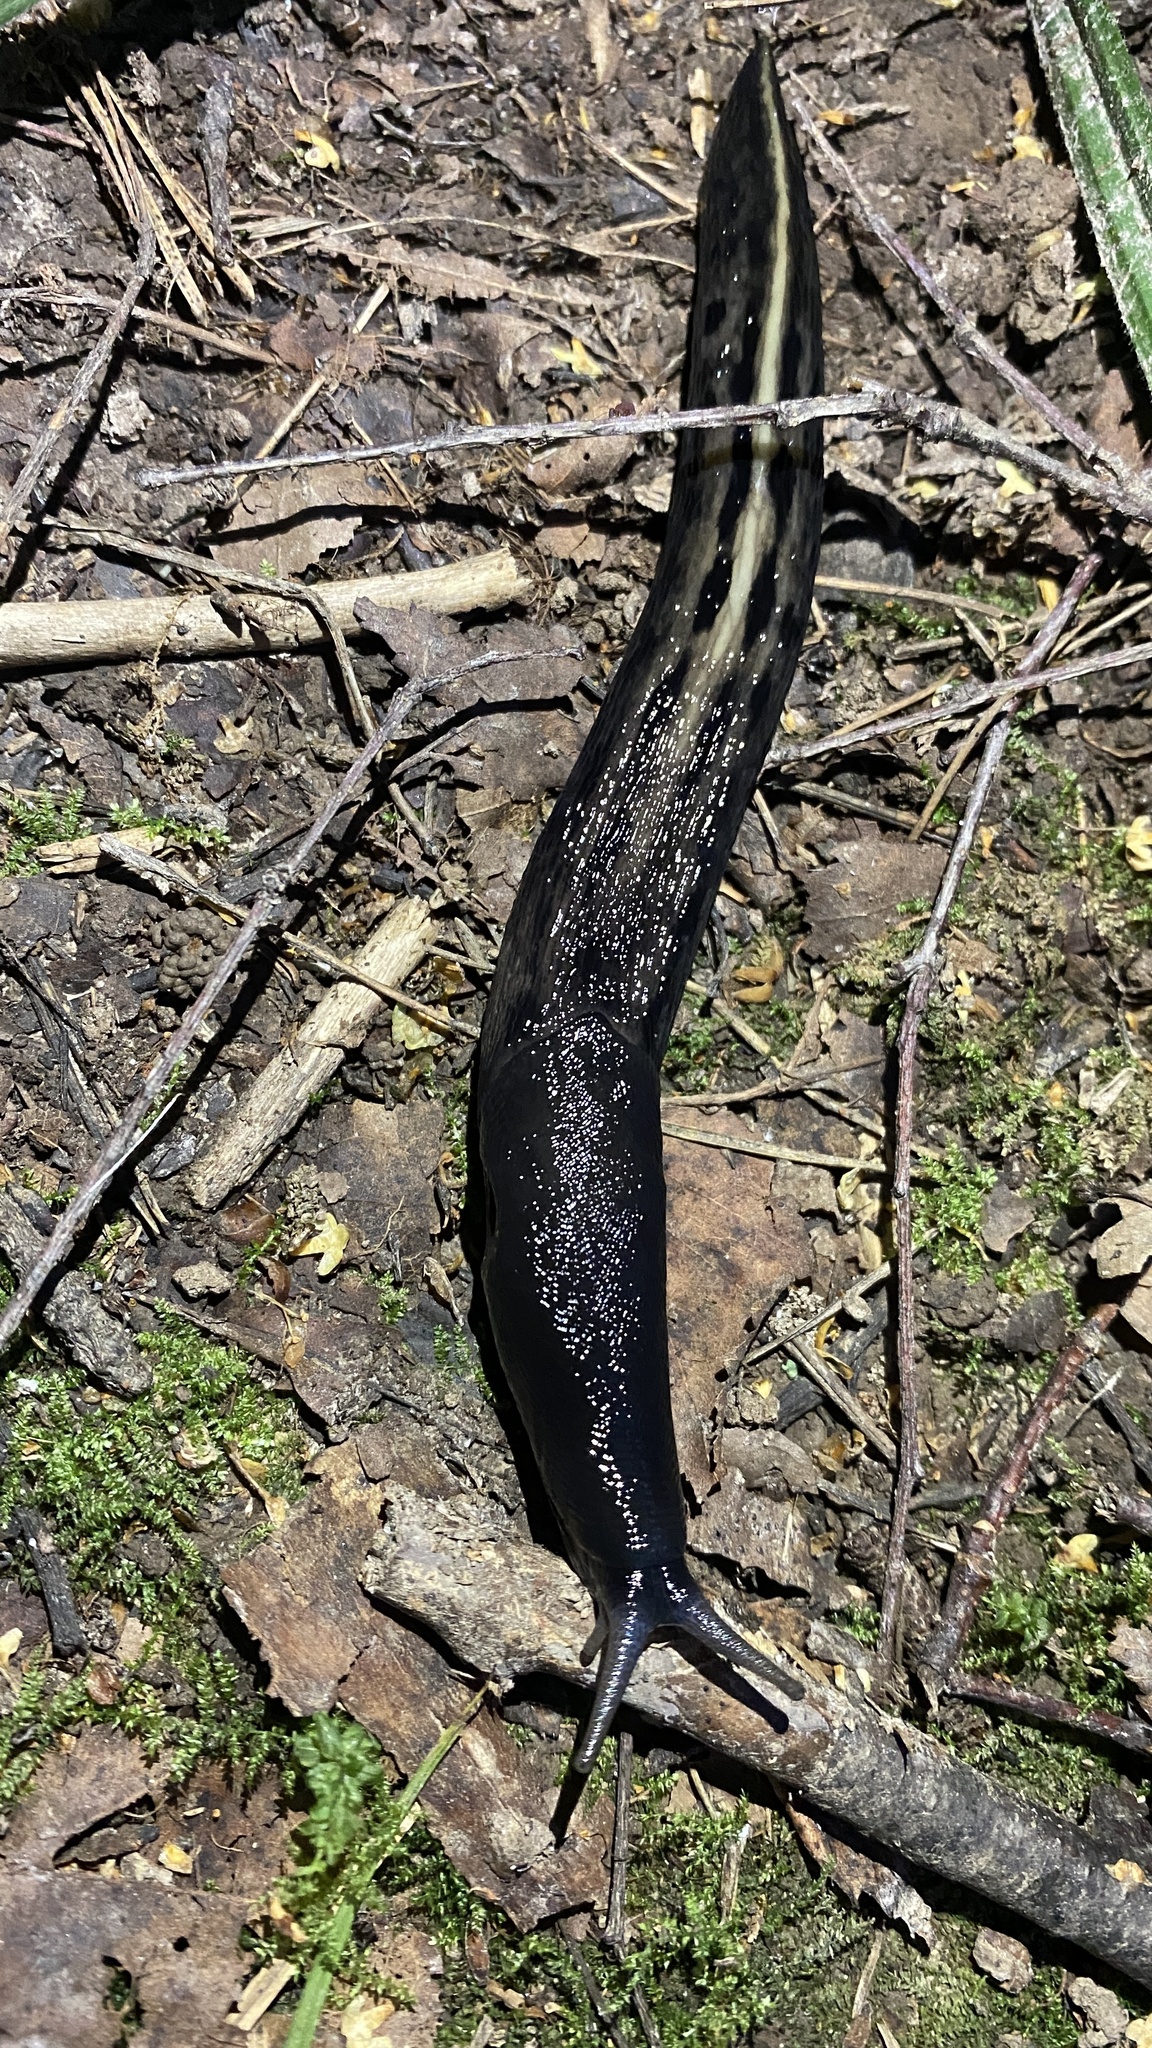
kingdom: Animalia
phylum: Mollusca
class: Gastropoda
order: Stylommatophora
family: Limacidae
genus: Limax
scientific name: Limax cinereoniger
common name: Ash-black slug
